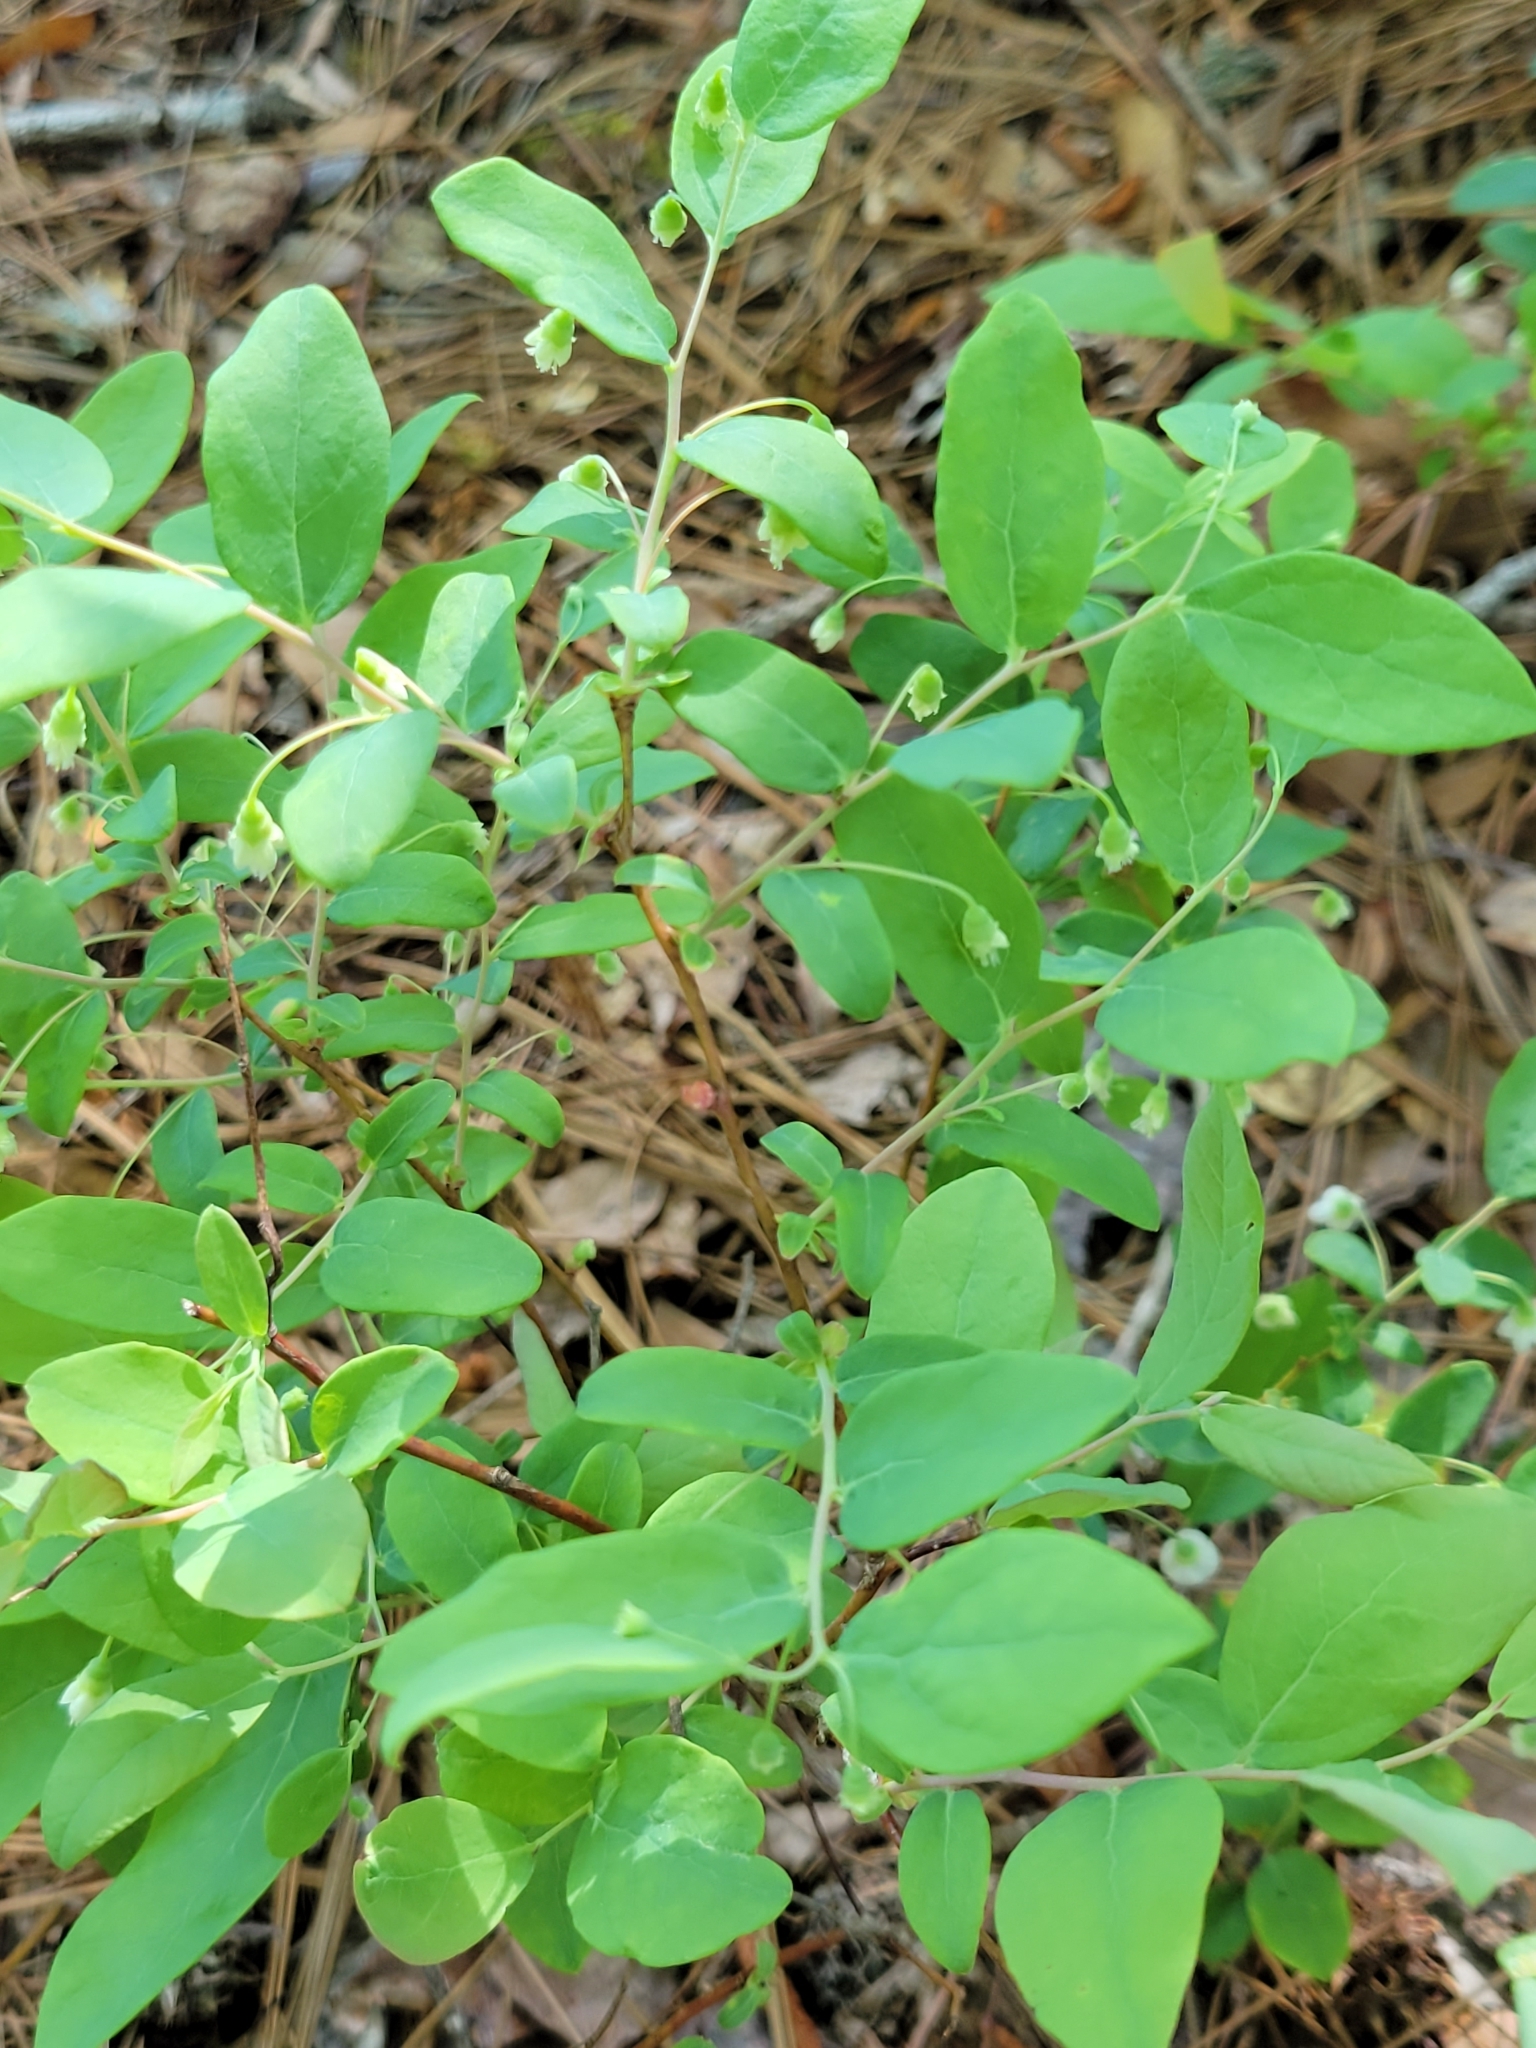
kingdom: Plantae
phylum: Tracheophyta
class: Magnoliopsida
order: Ericales
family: Ericaceae
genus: Vaccinium
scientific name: Vaccinium stamineum
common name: Deerberry
